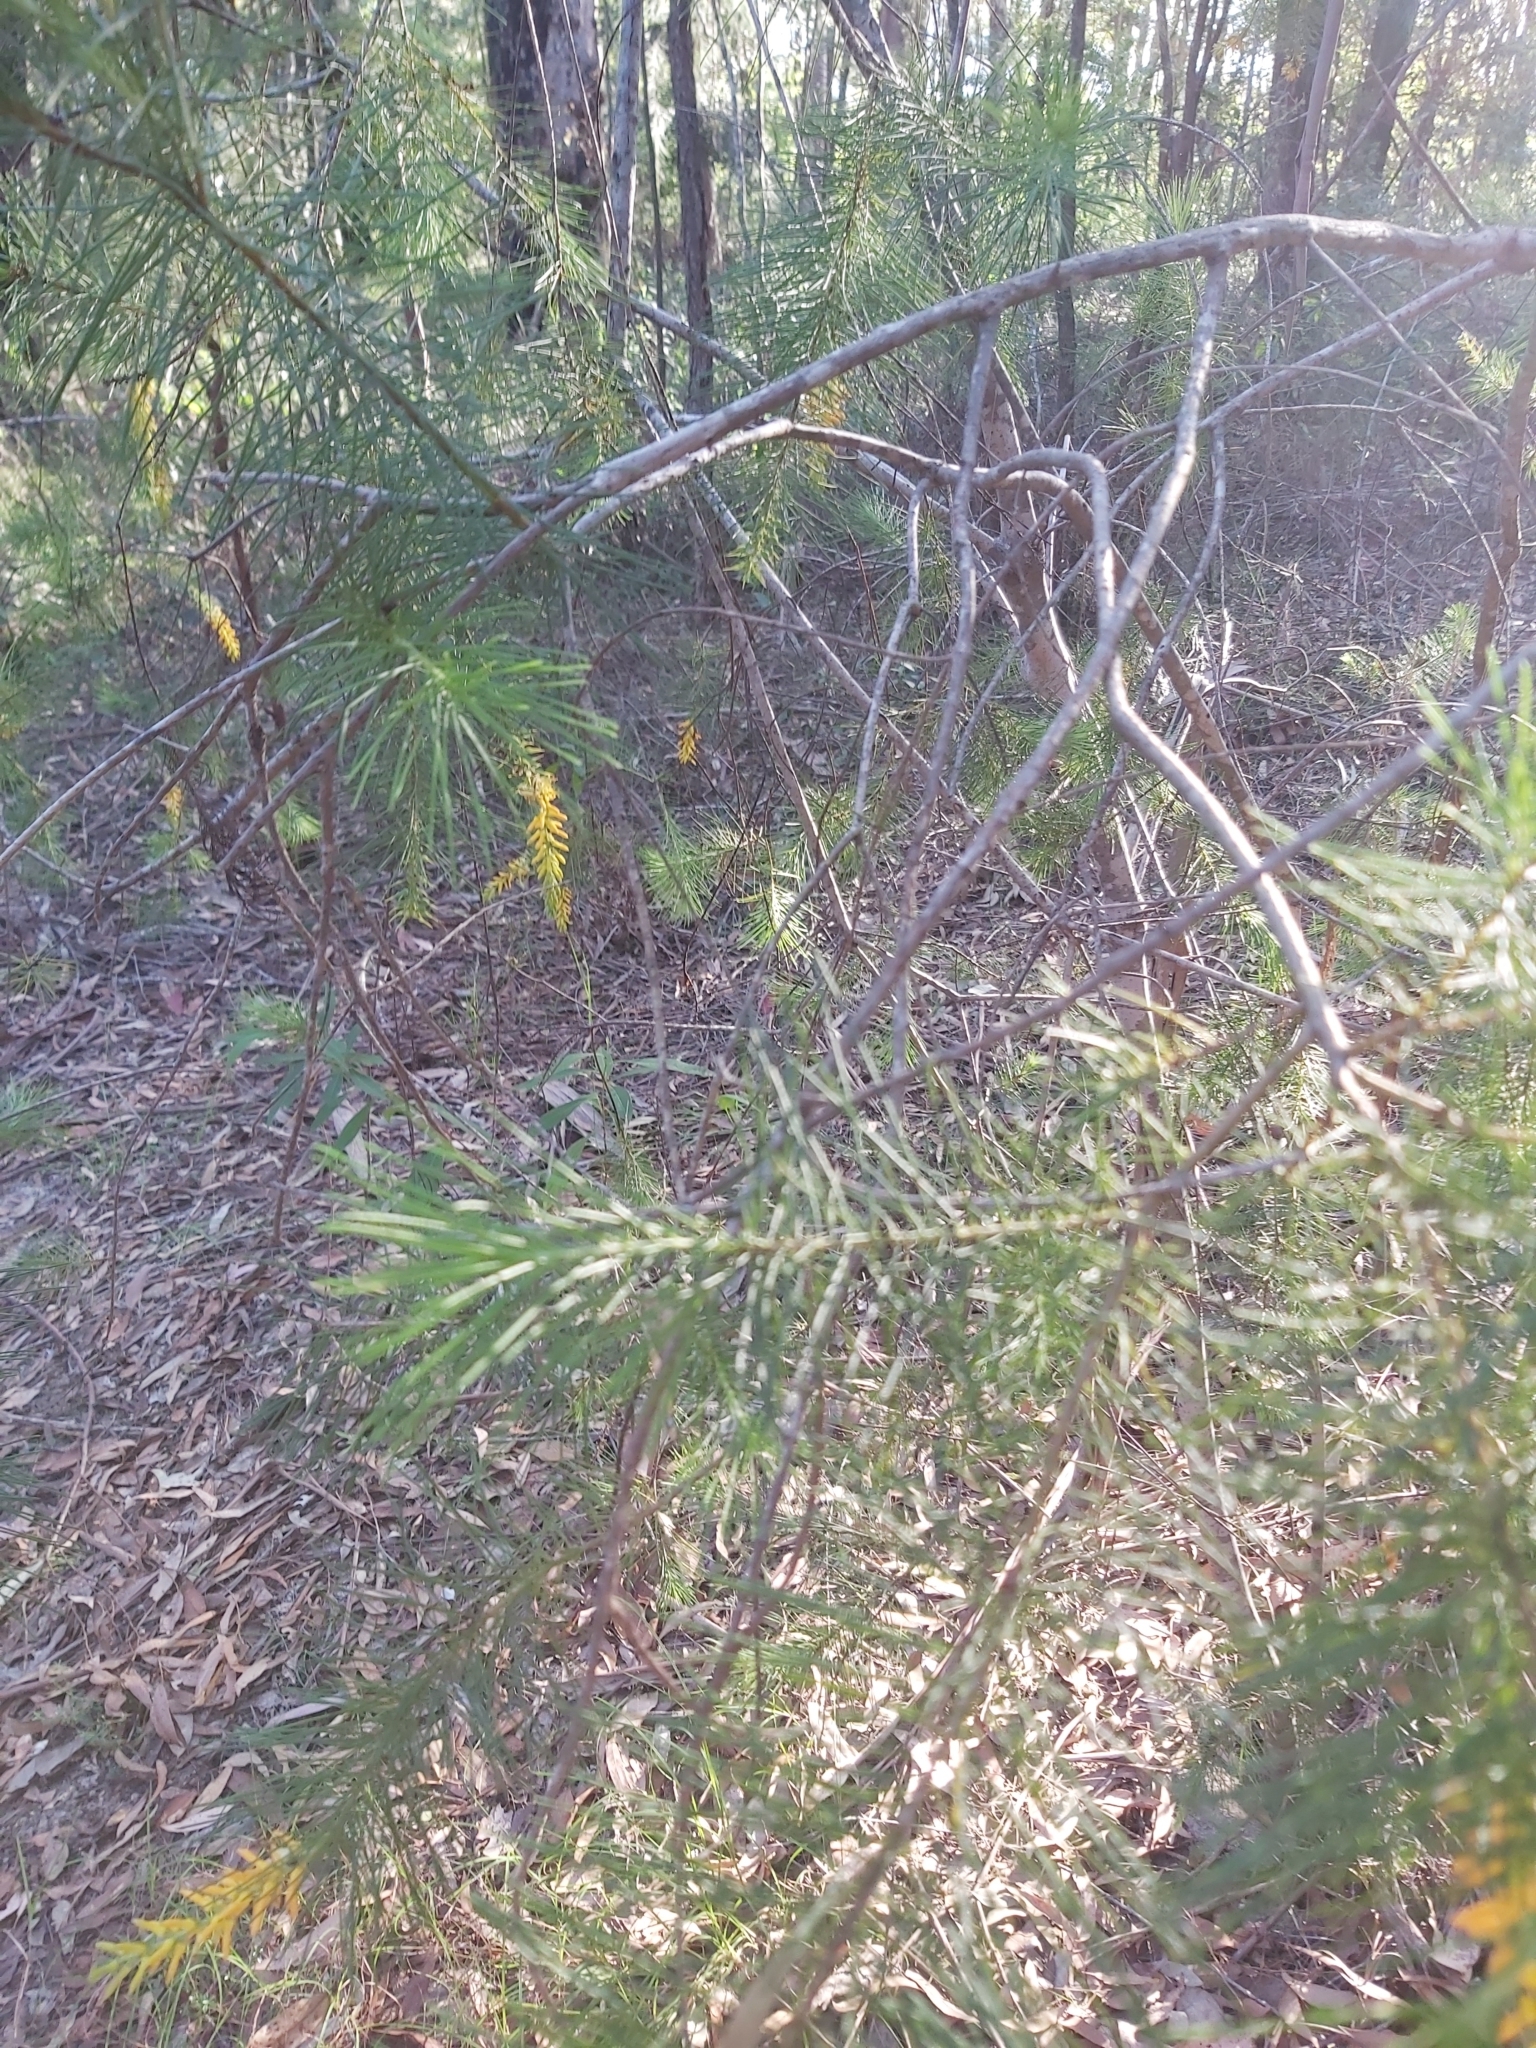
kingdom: Plantae
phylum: Tracheophyta
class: Magnoliopsida
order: Proteales
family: Proteaceae
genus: Persoonia
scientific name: Persoonia pinifolia
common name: Pine-leaf geebung
